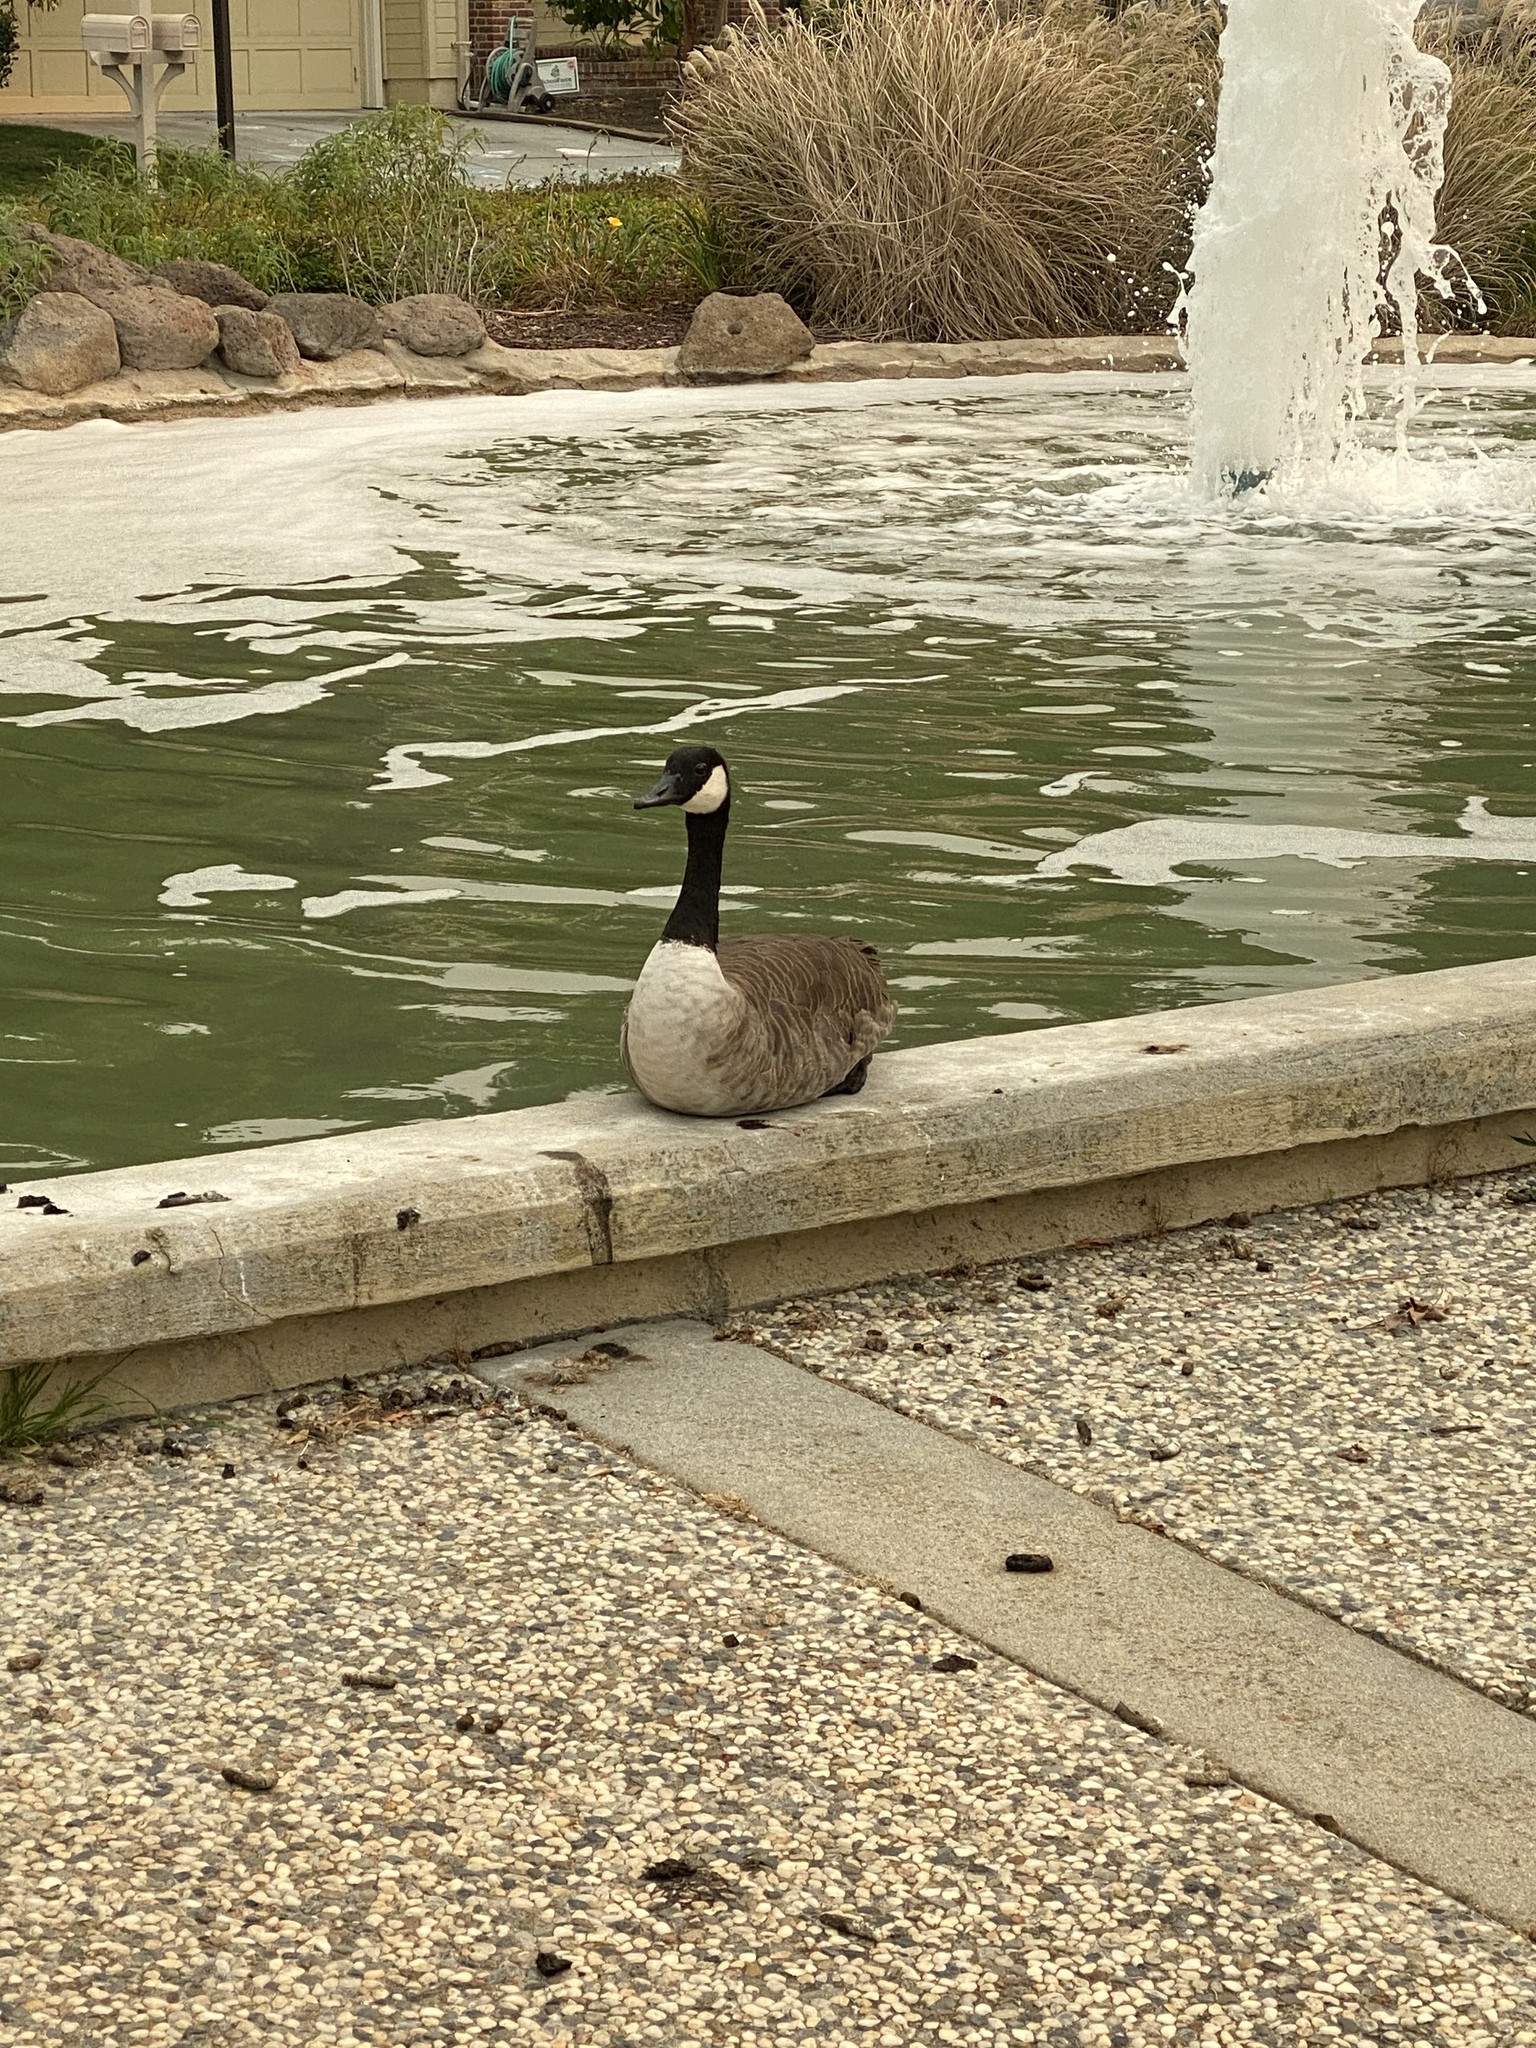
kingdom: Animalia
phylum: Chordata
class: Aves
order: Anseriformes
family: Anatidae
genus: Branta
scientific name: Branta canadensis
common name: Canada goose
